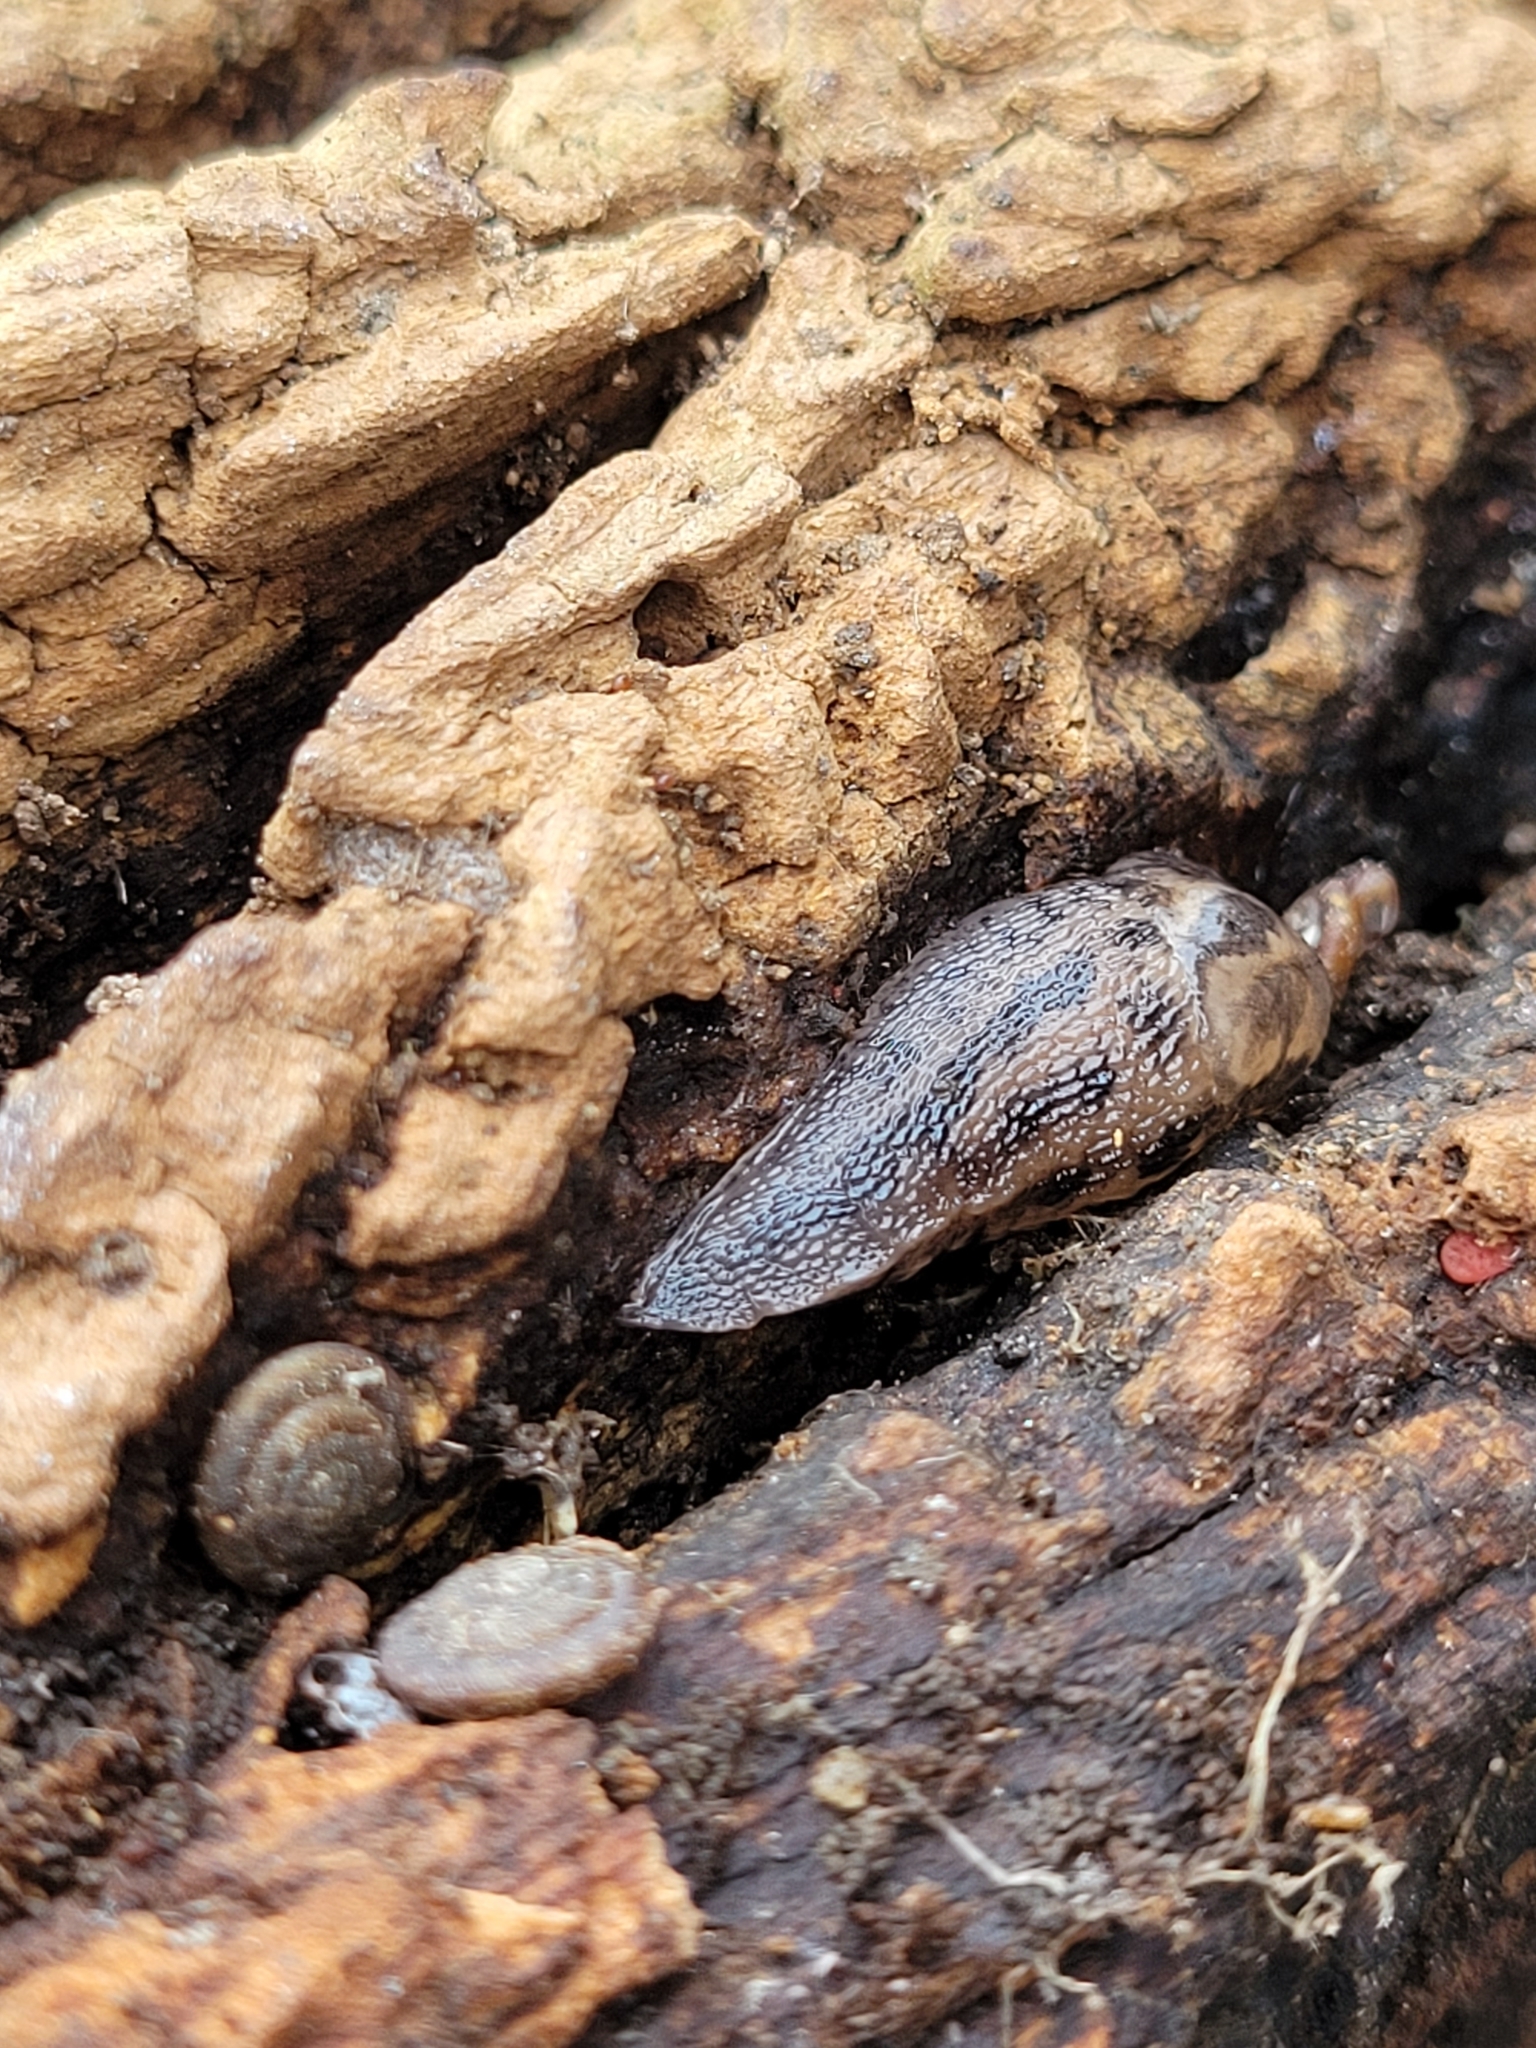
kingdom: Animalia
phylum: Mollusca
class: Gastropoda
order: Stylommatophora
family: Limacidae
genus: Limax
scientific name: Limax maximus
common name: Great grey slug
